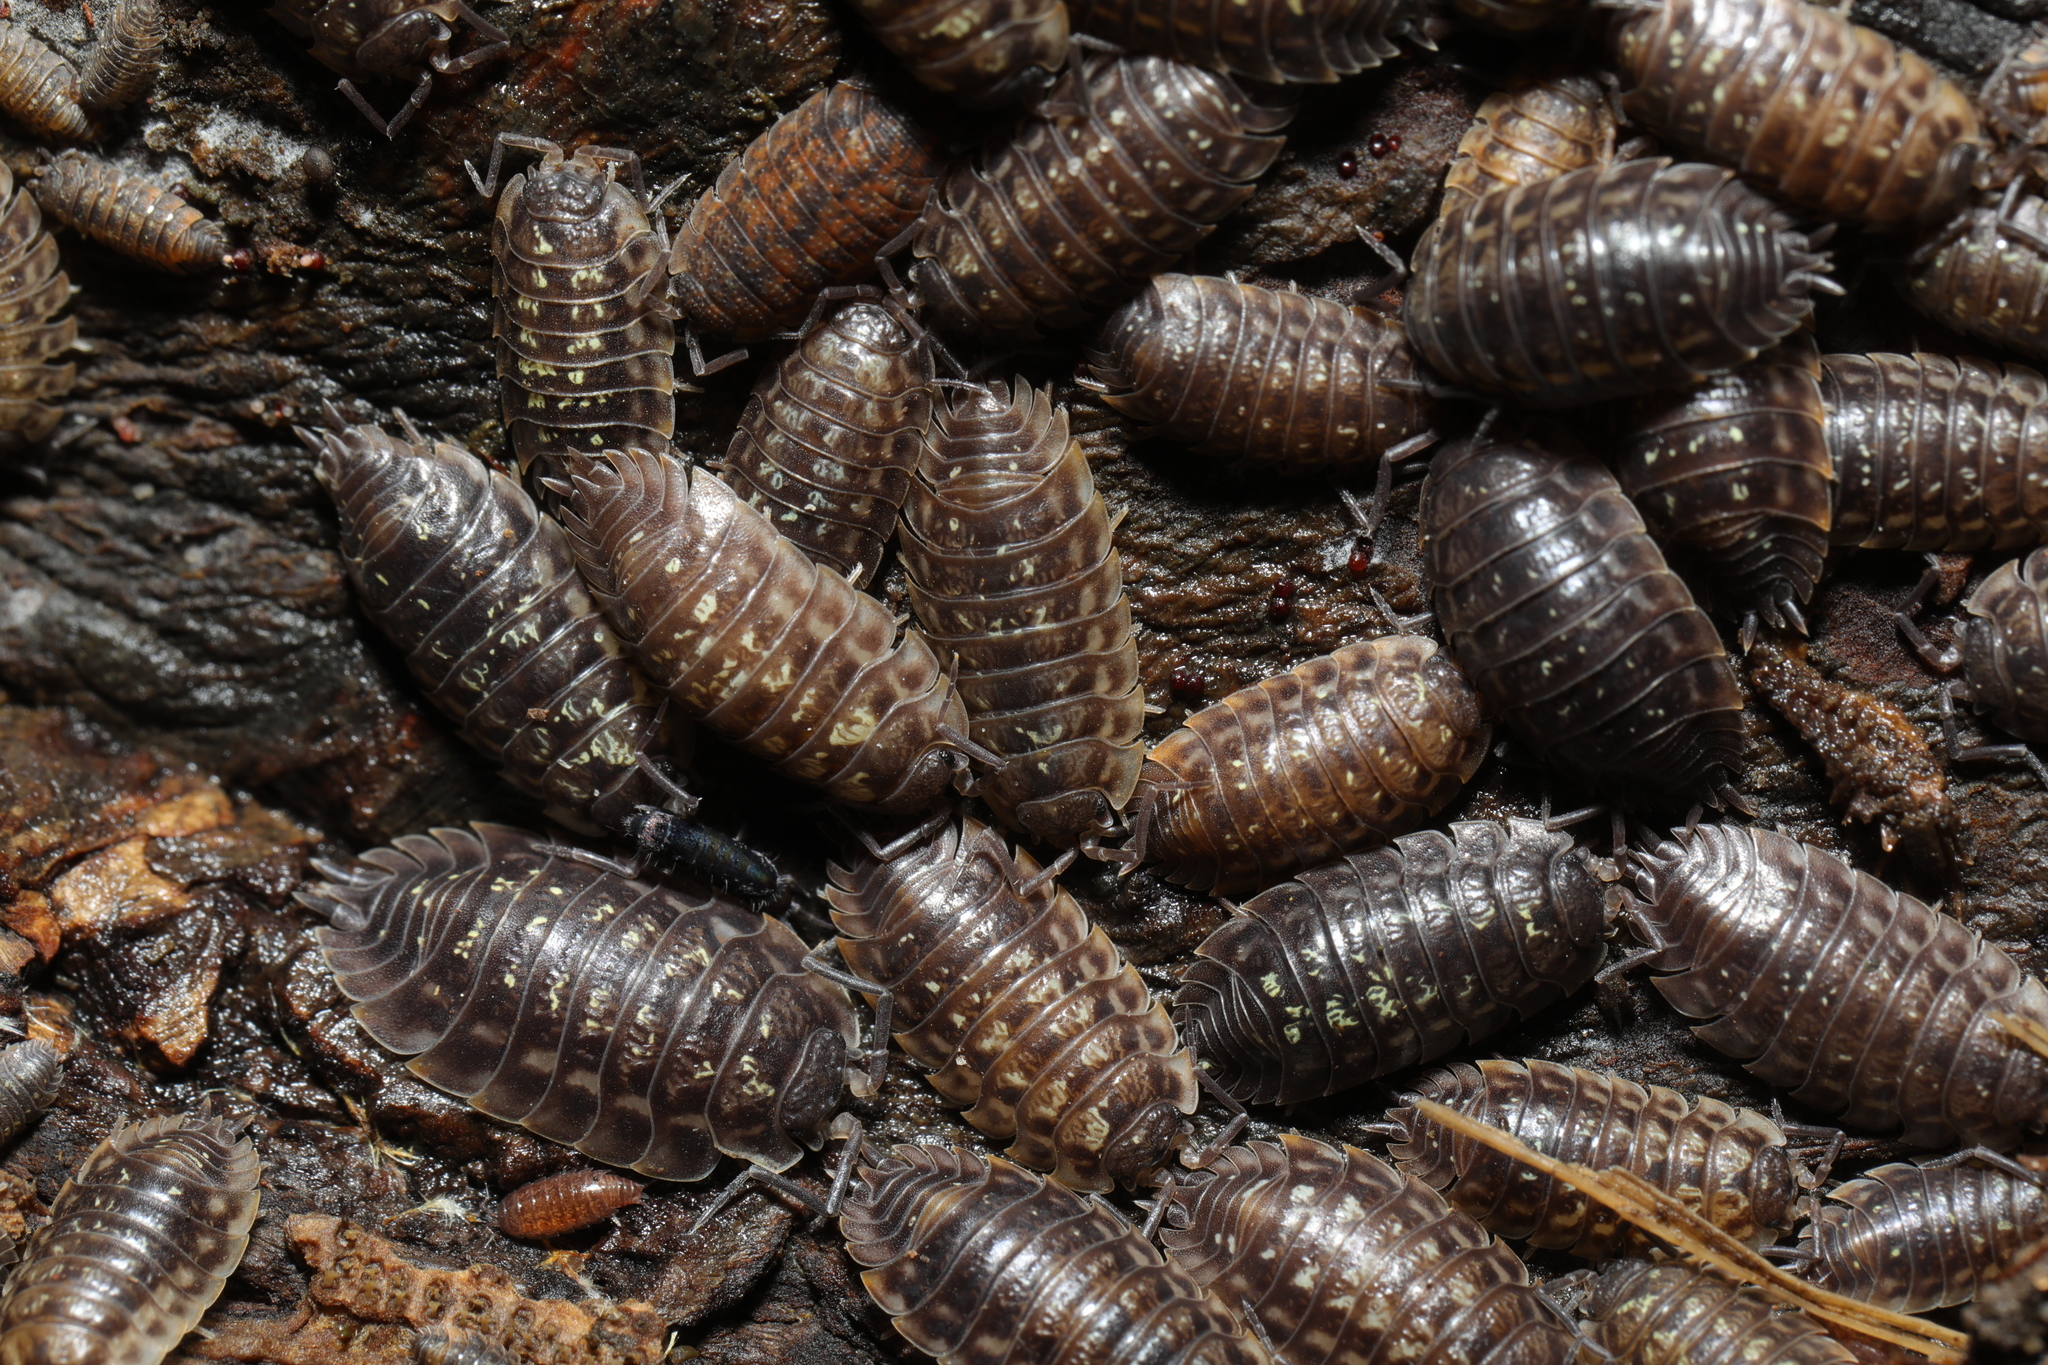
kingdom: Animalia
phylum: Arthropoda
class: Malacostraca
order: Isopoda
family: Oniscidae
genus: Oniscus
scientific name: Oniscus asellus
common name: Common shiny woodlouse
